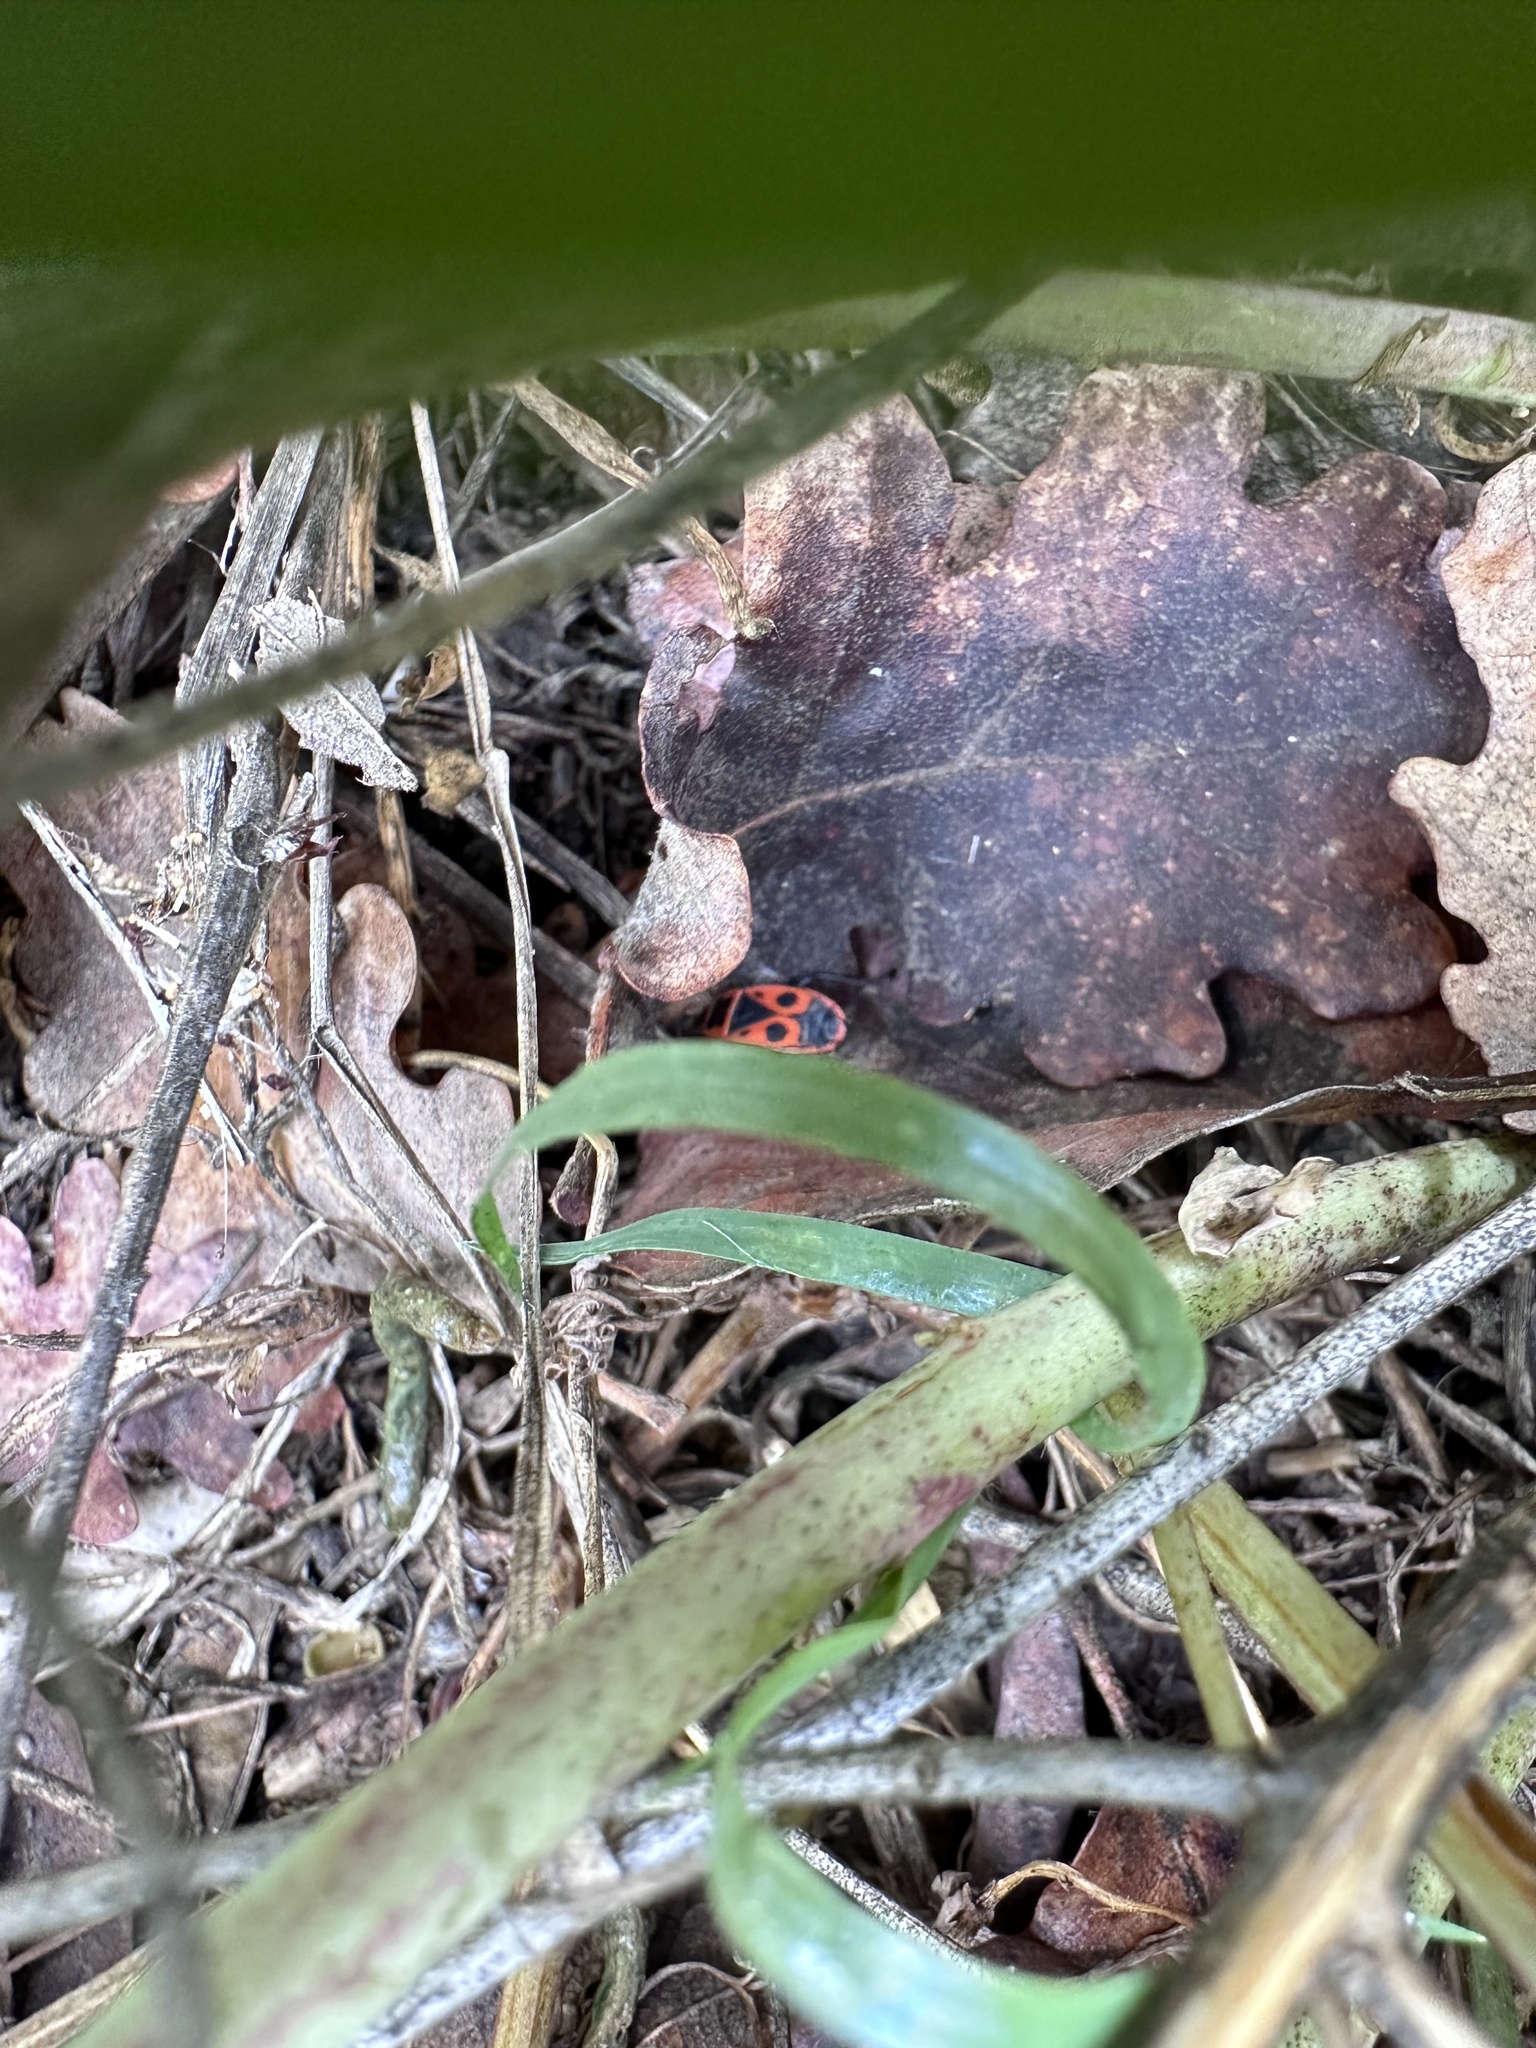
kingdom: Animalia
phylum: Arthropoda
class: Insecta
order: Hemiptera
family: Pyrrhocoridae
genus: Pyrrhocoris
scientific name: Pyrrhocoris apterus
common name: Firebug
